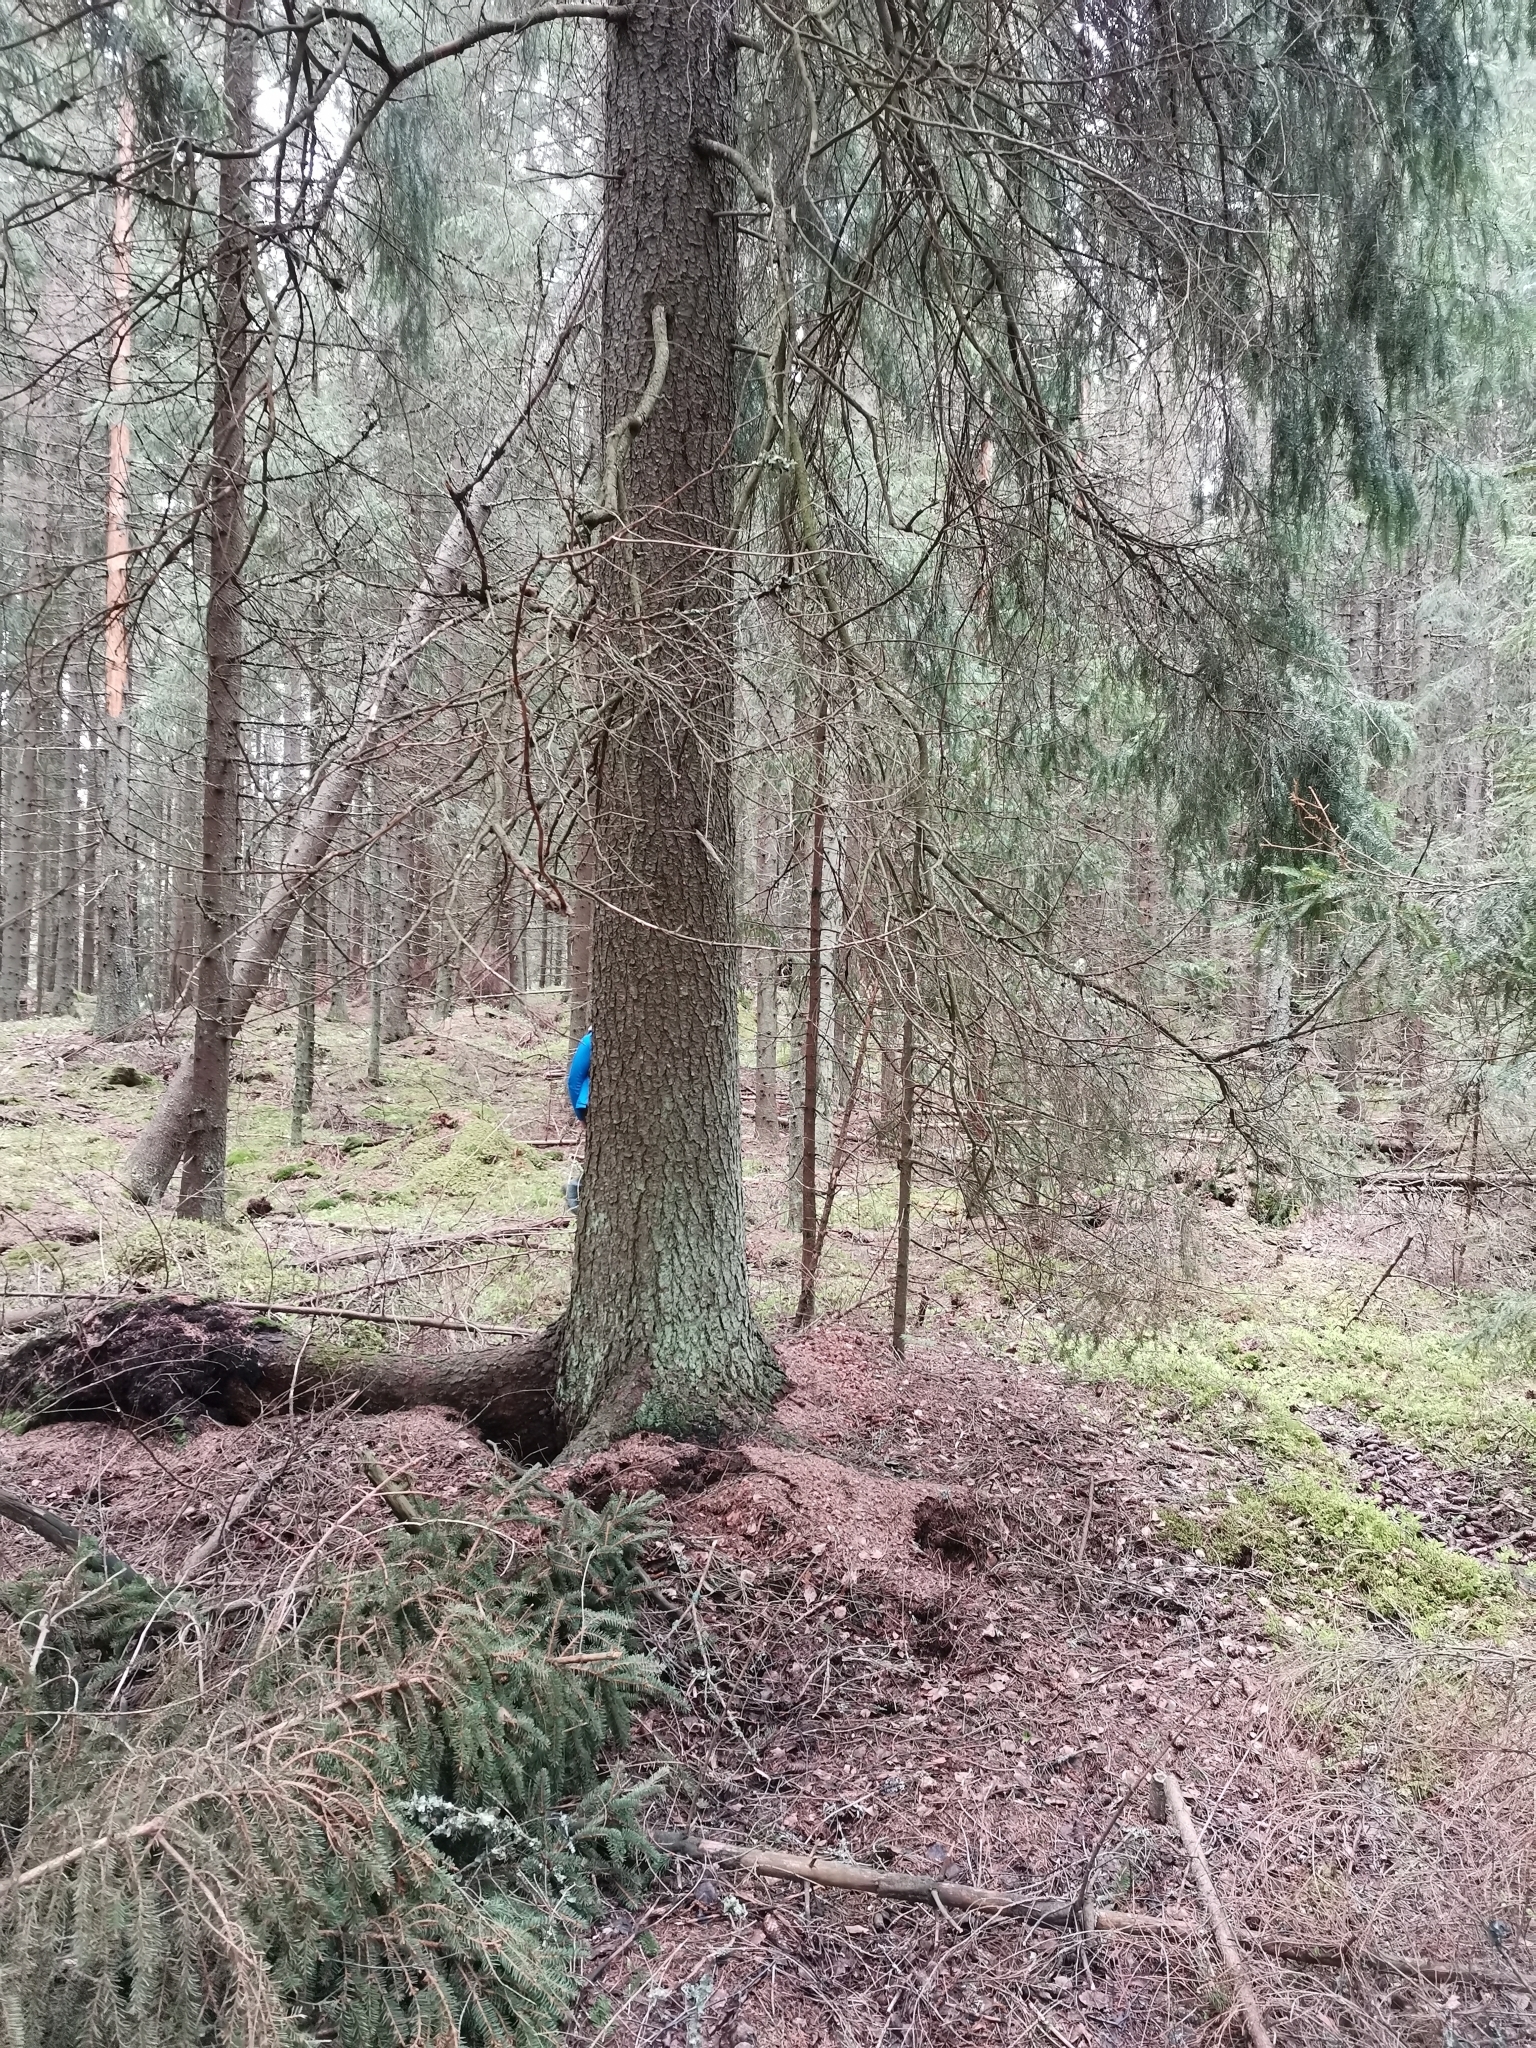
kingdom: Animalia
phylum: Chordata
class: Mammalia
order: Rodentia
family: Sciuridae
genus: Pteromys
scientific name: Pteromys volans
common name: Siberian flying squirrel
